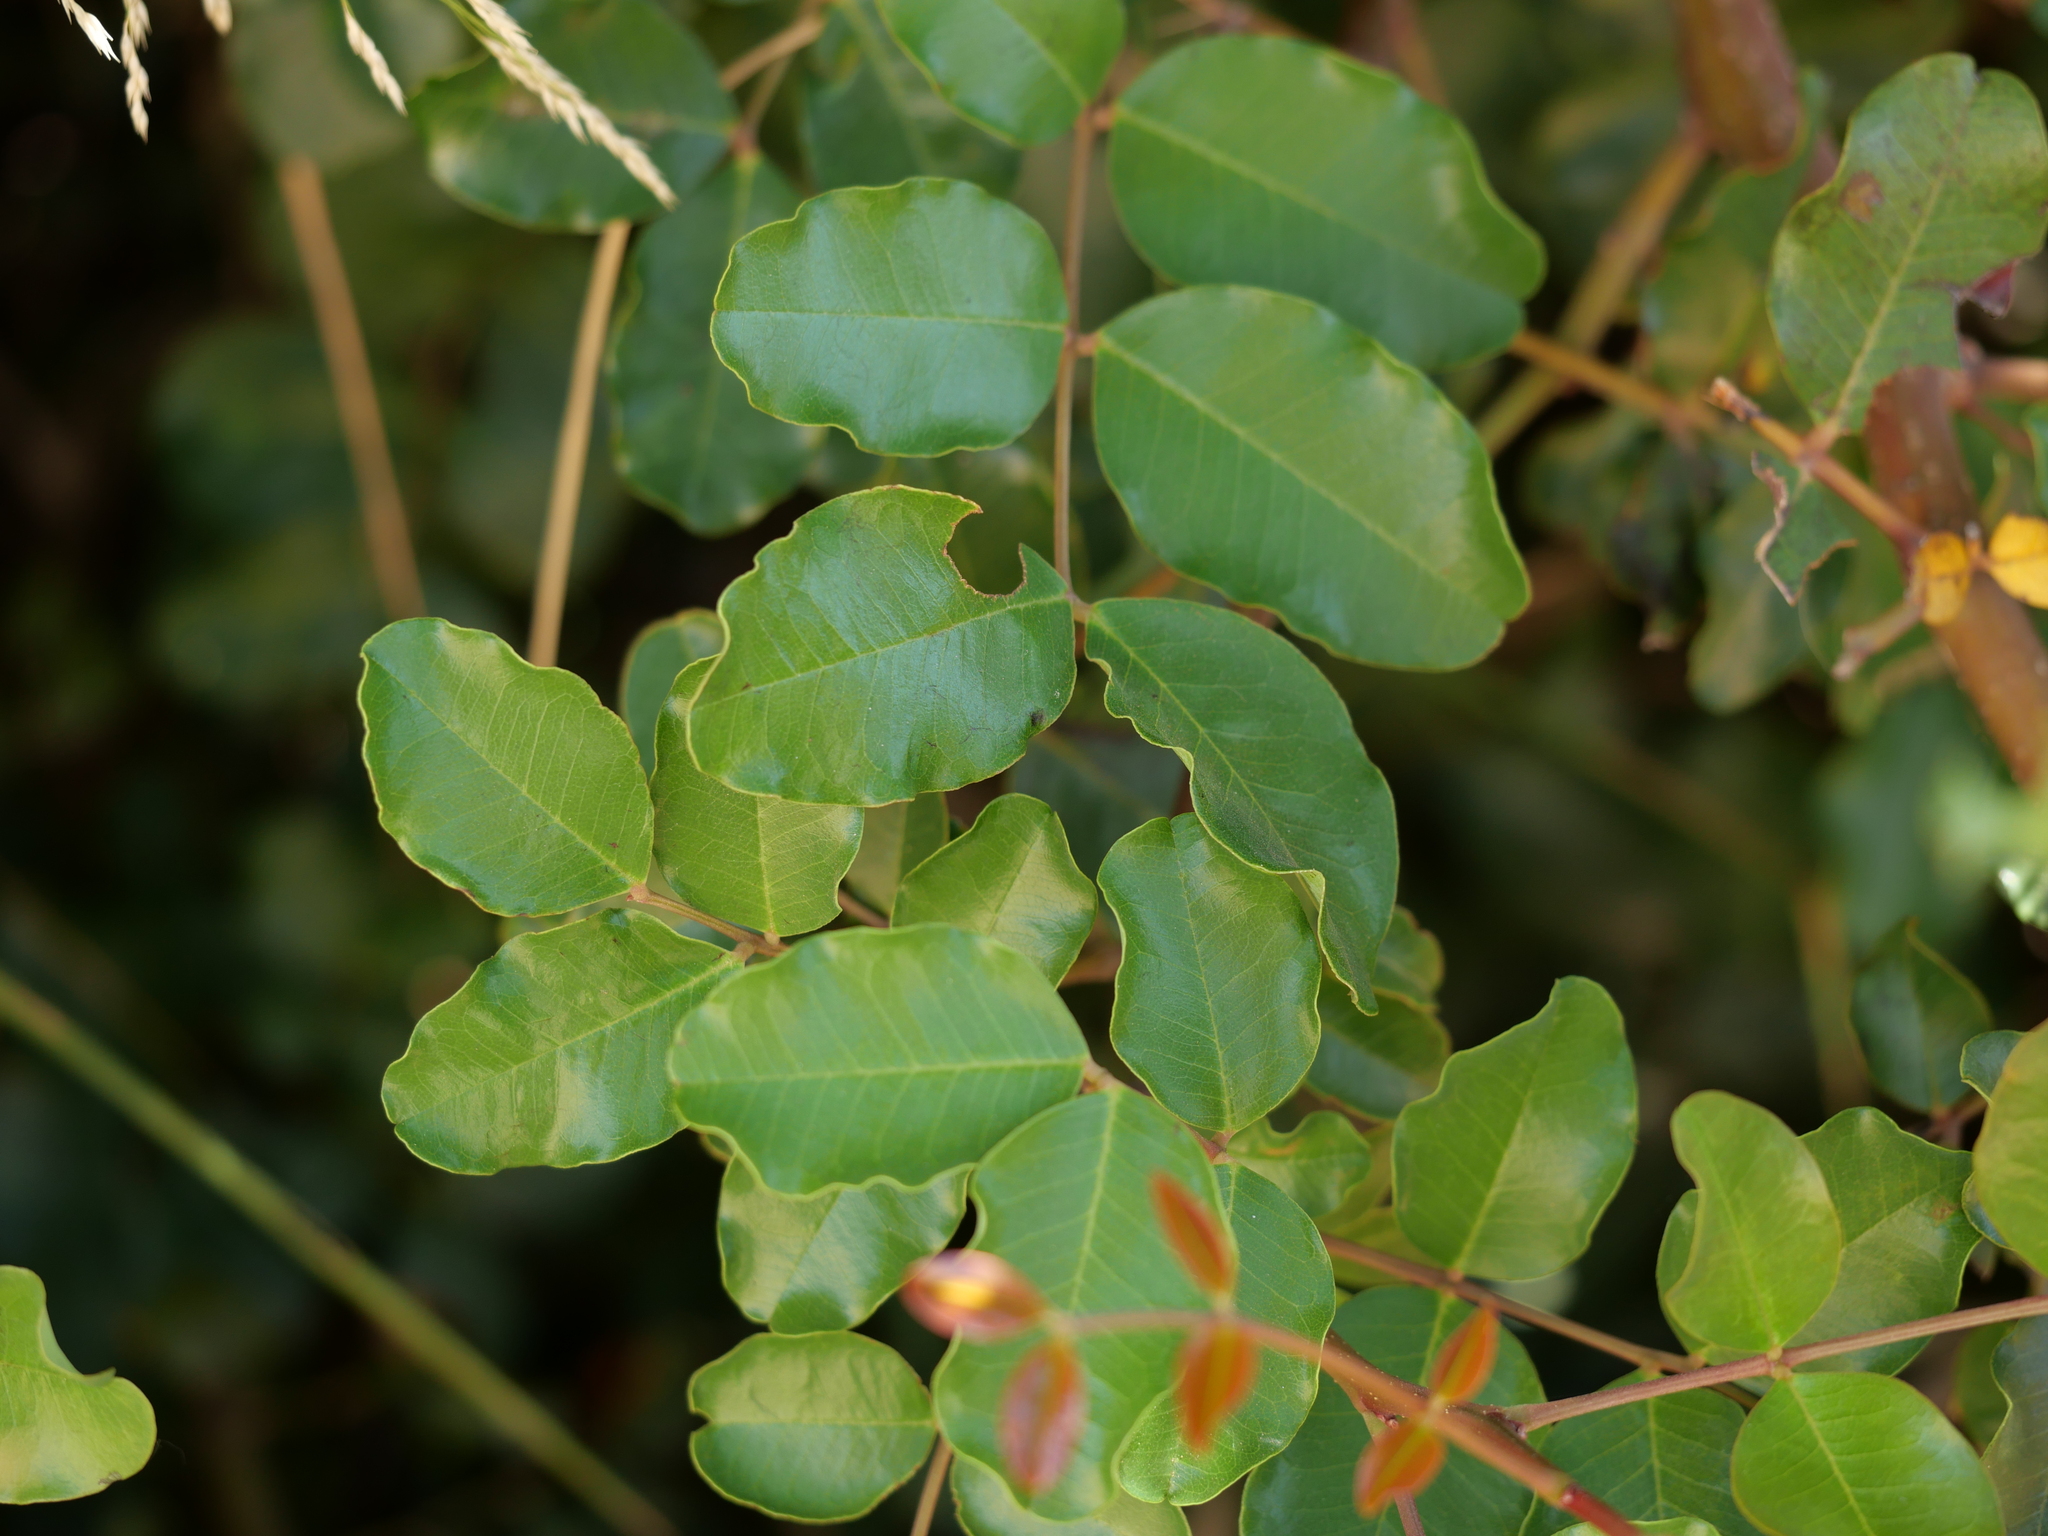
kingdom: Plantae
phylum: Tracheophyta
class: Magnoliopsida
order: Fabales
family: Fabaceae
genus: Ceratonia
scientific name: Ceratonia siliqua
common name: Carob
